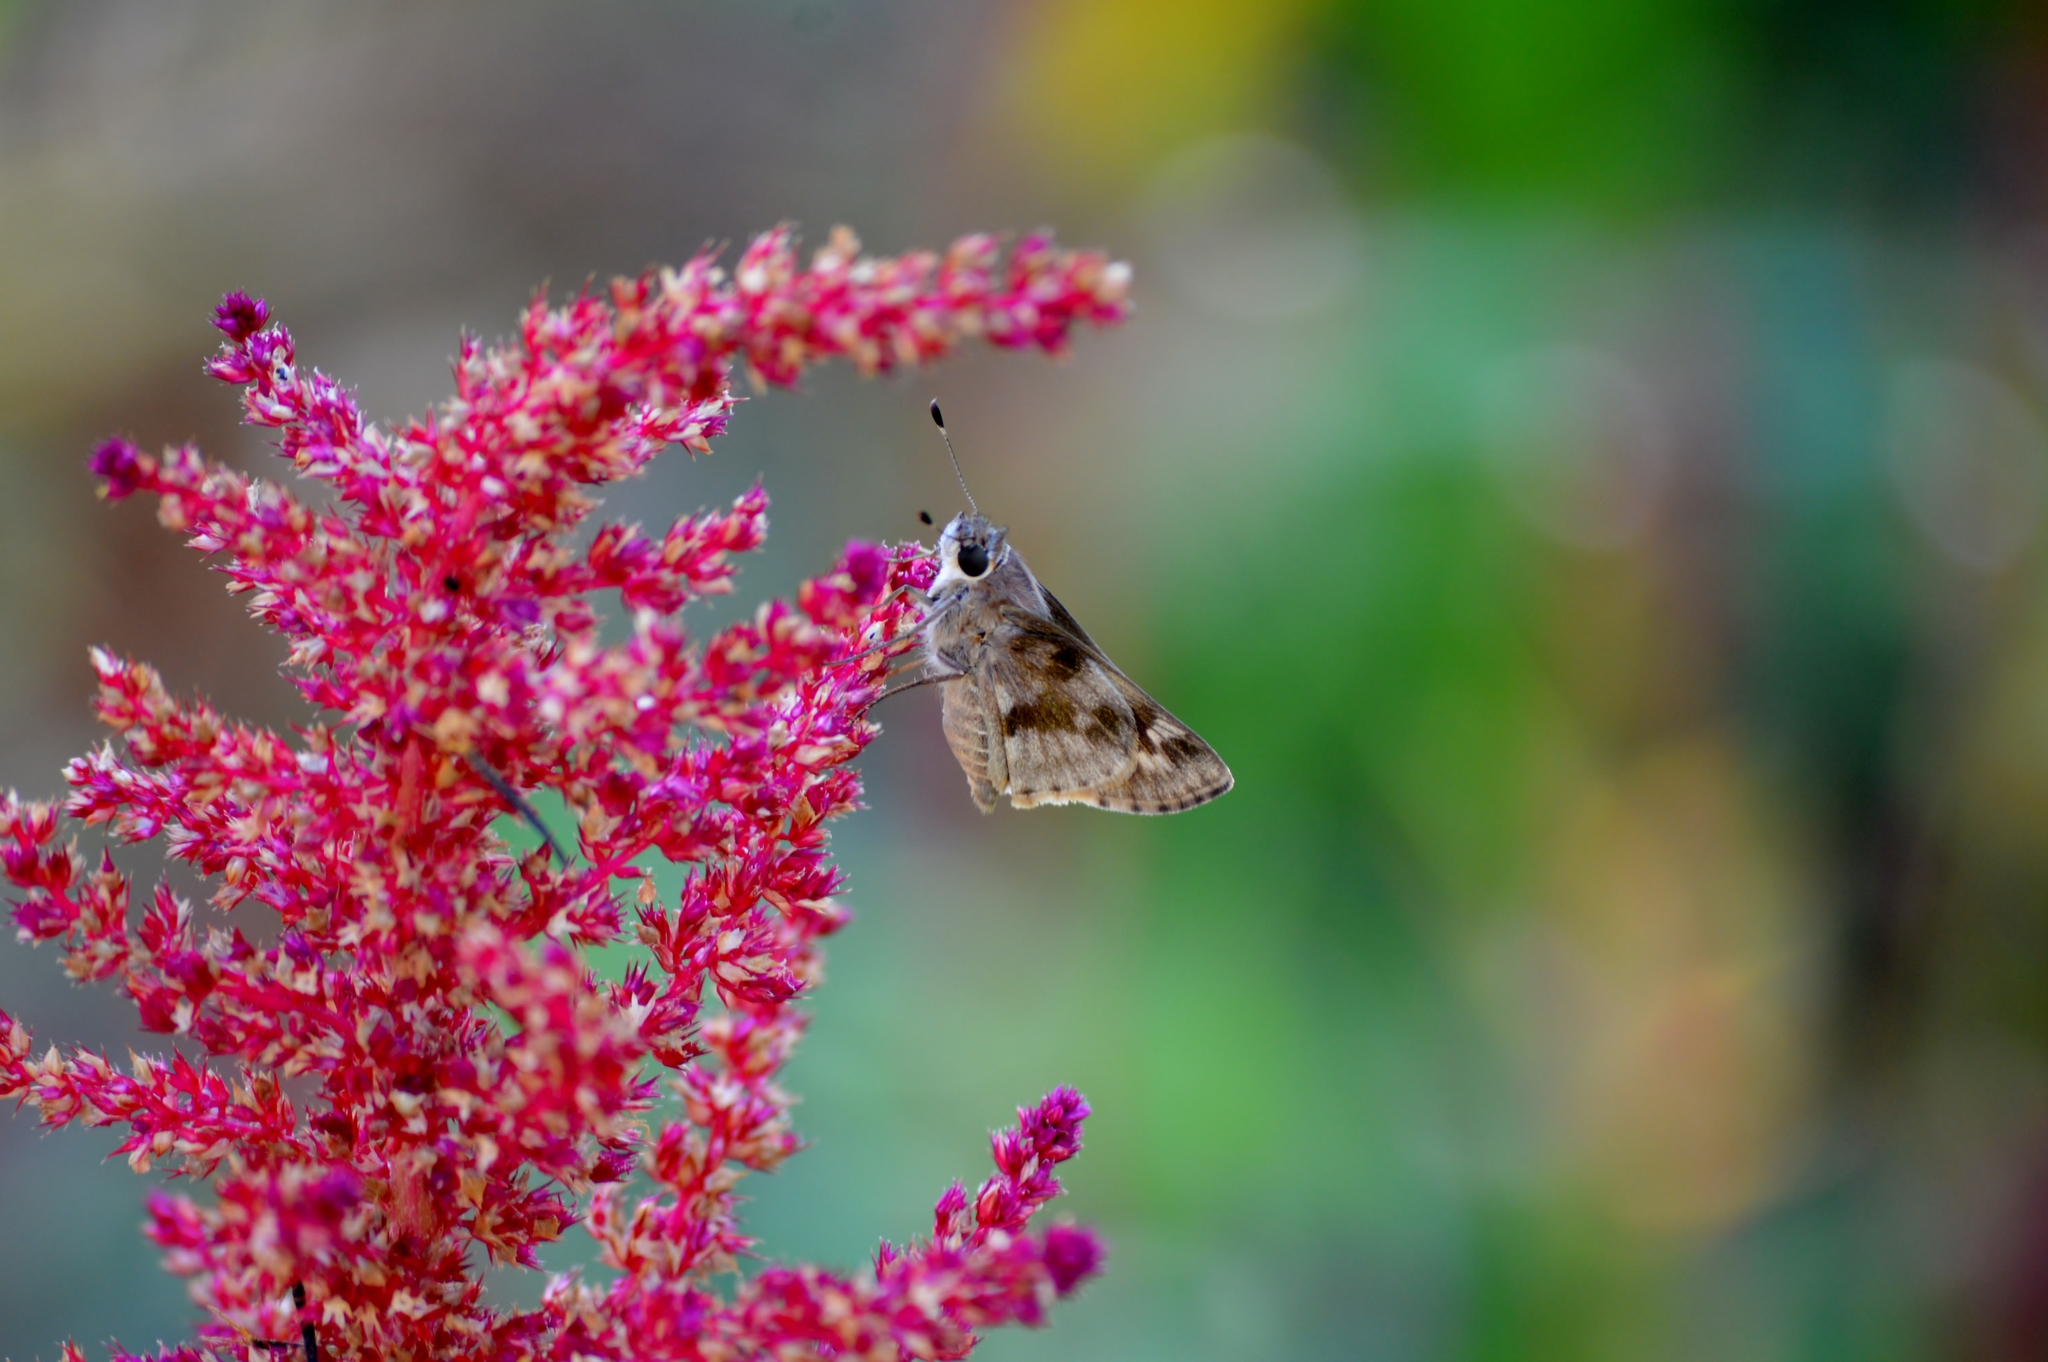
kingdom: Animalia
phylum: Arthropoda
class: Insecta
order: Lepidoptera
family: Hesperiidae
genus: Pompeius
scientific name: Pompeius pompeius
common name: Pompeius skipper
